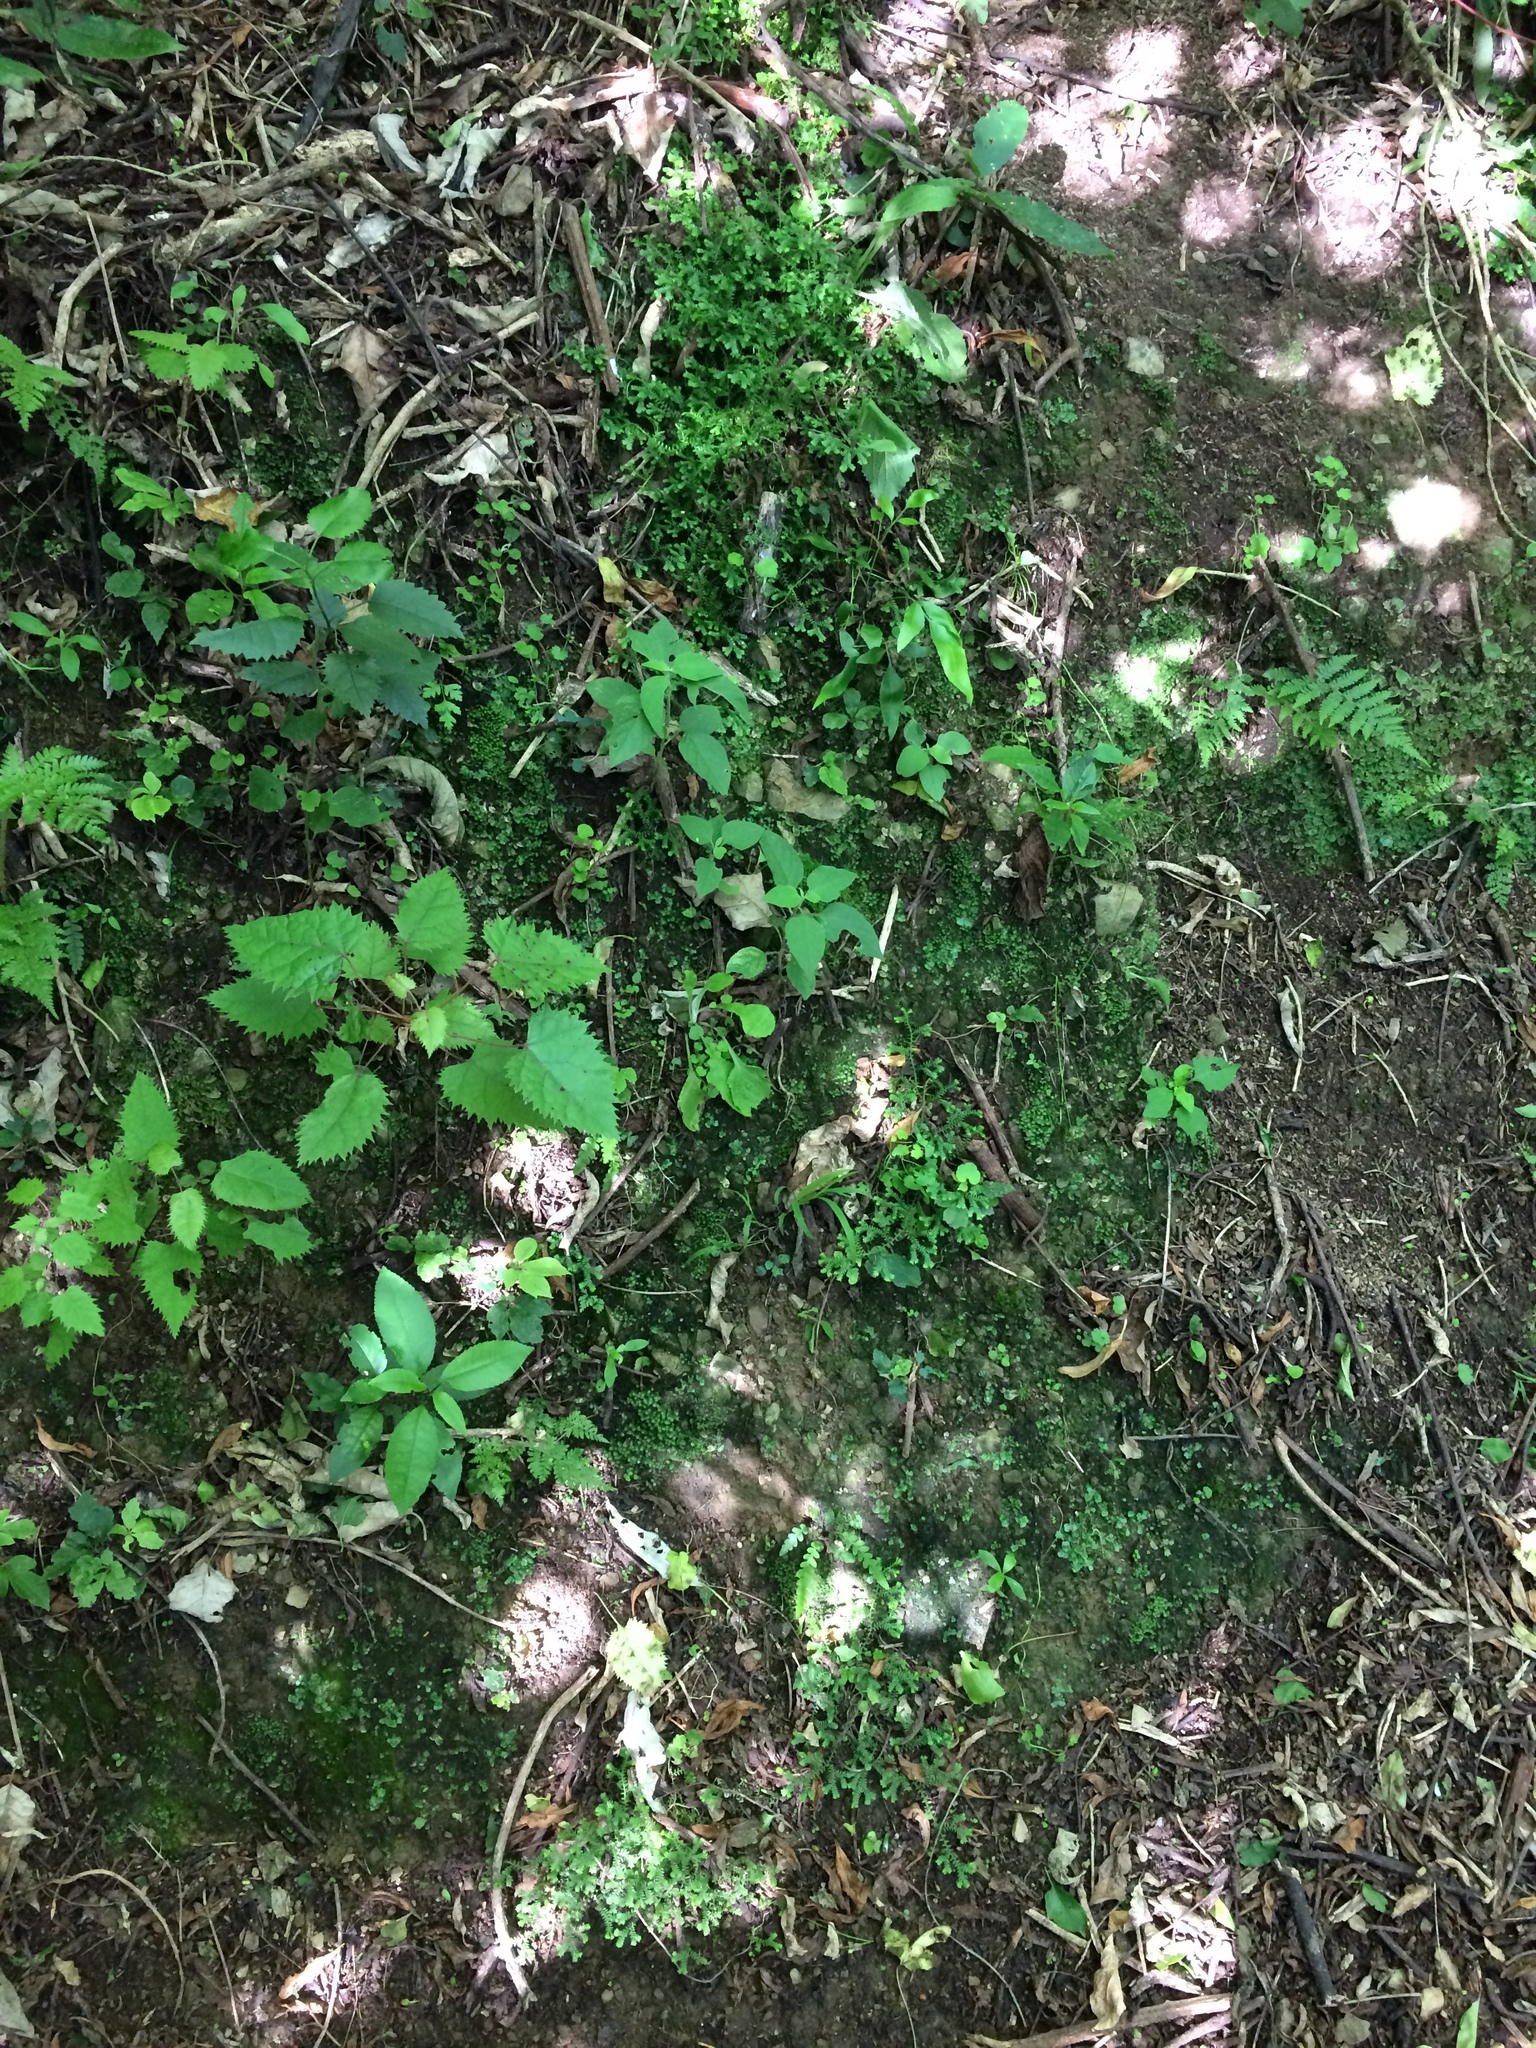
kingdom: Plantae
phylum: Tracheophyta
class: Lycopodiopsida
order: Selaginellales
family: Selaginellaceae
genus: Selaginella
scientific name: Selaginella kraussiana
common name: Krauss' spikemoss
